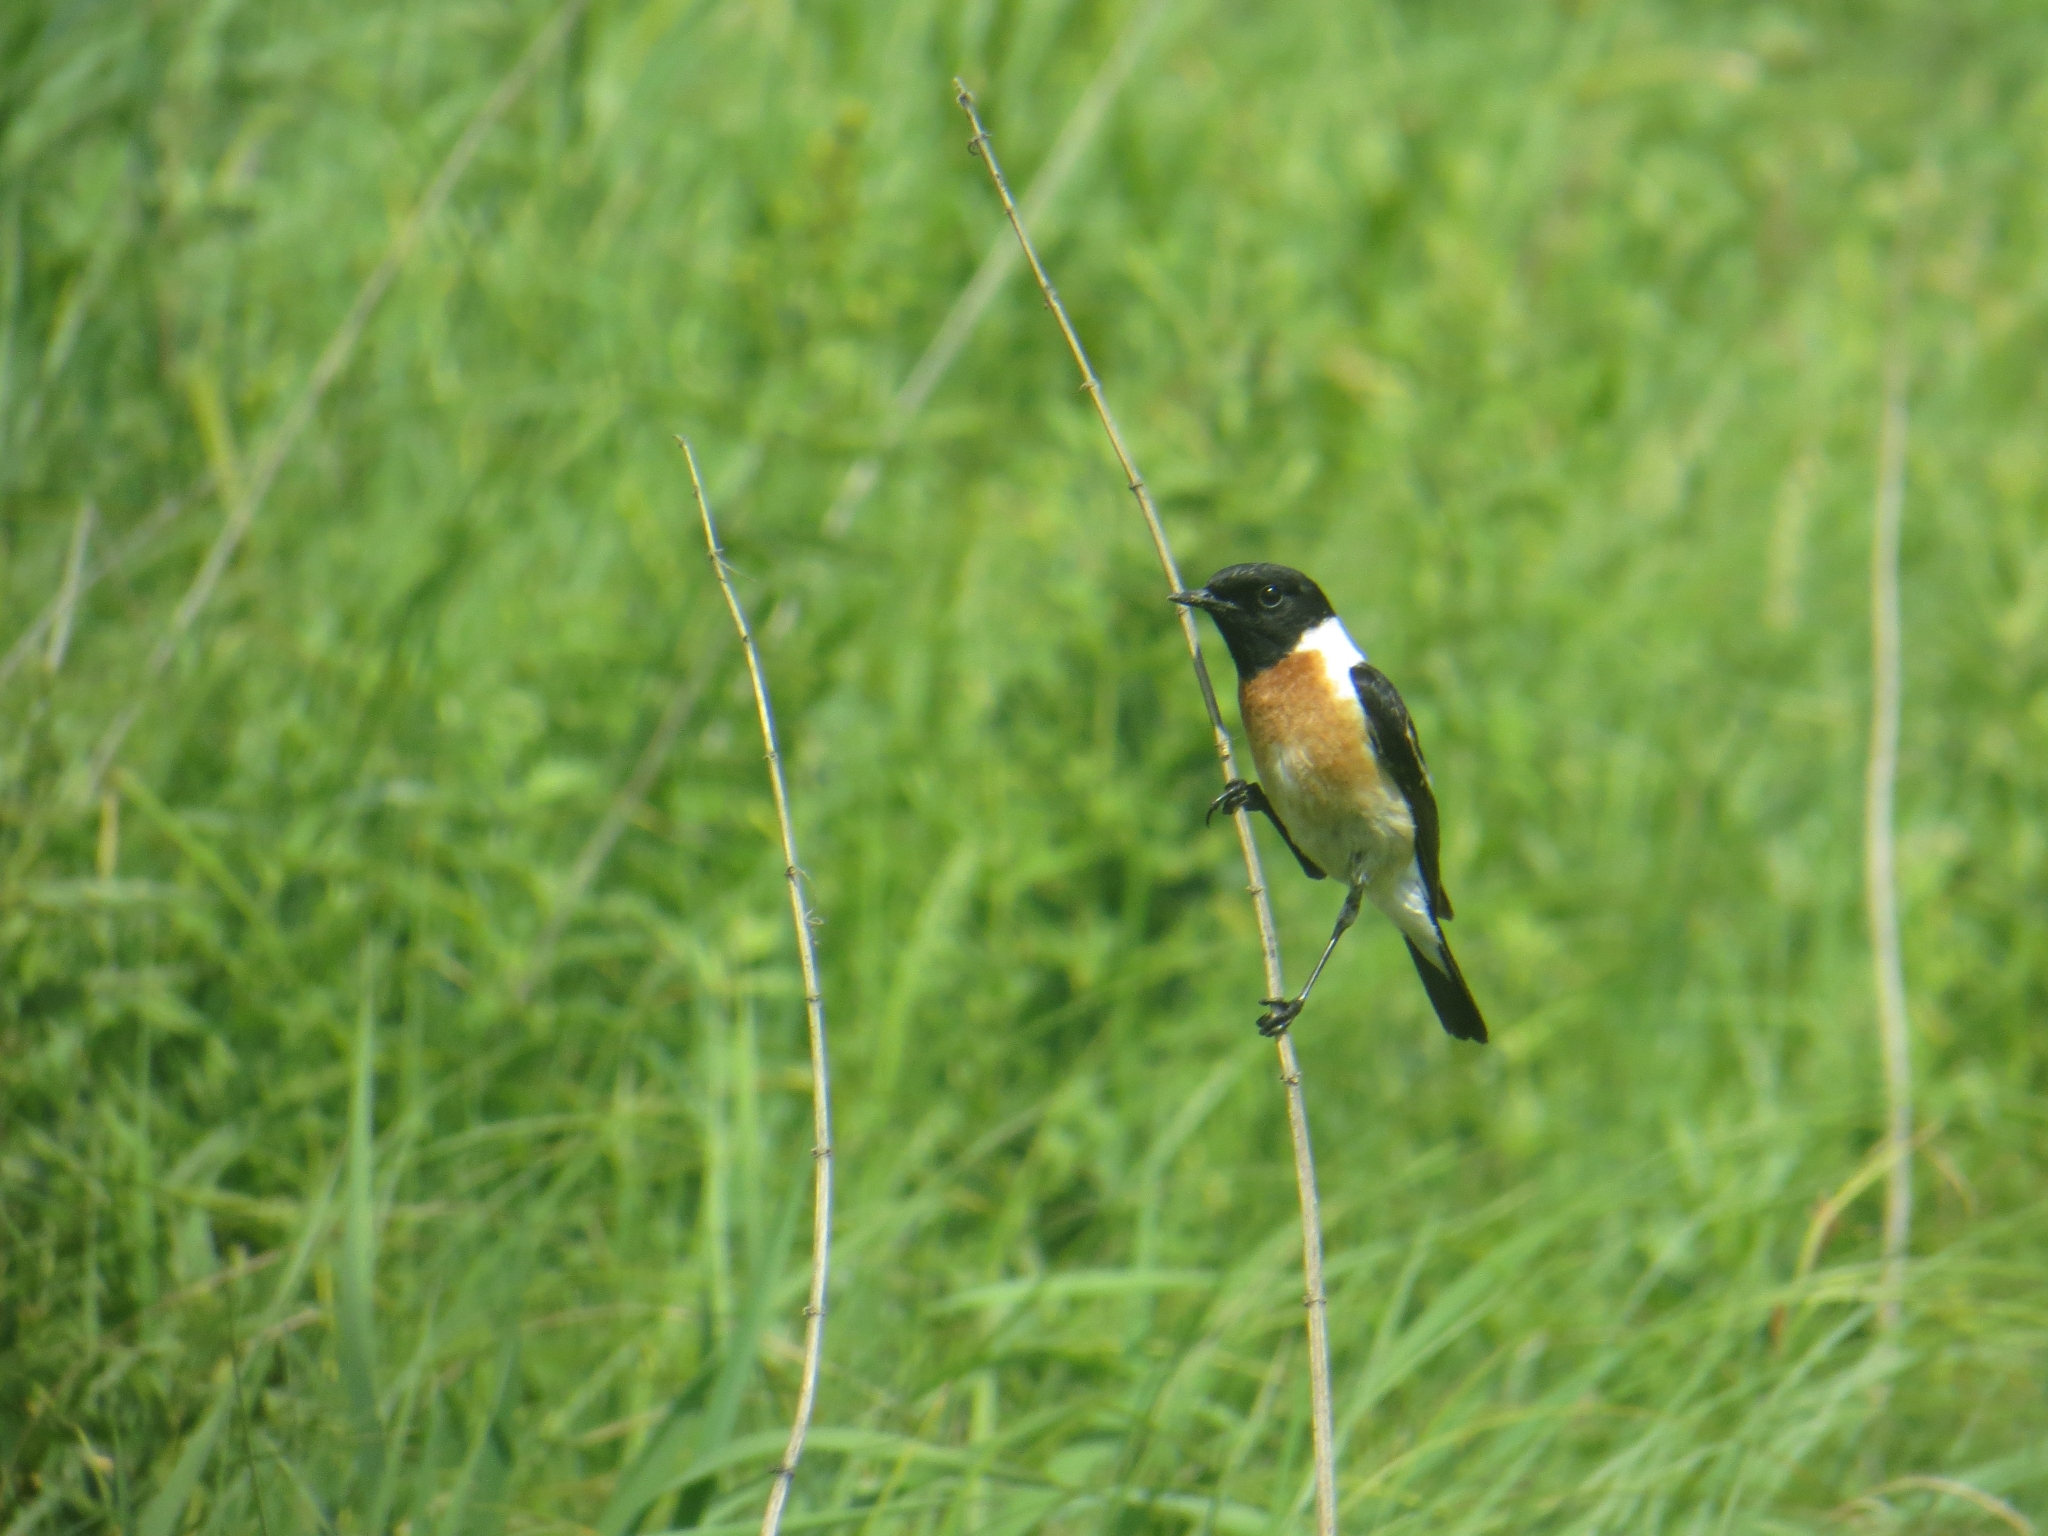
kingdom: Animalia
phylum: Chordata
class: Aves
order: Passeriformes
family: Muscicapidae
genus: Saxicola
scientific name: Saxicola maurus
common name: Siberian stonechat
